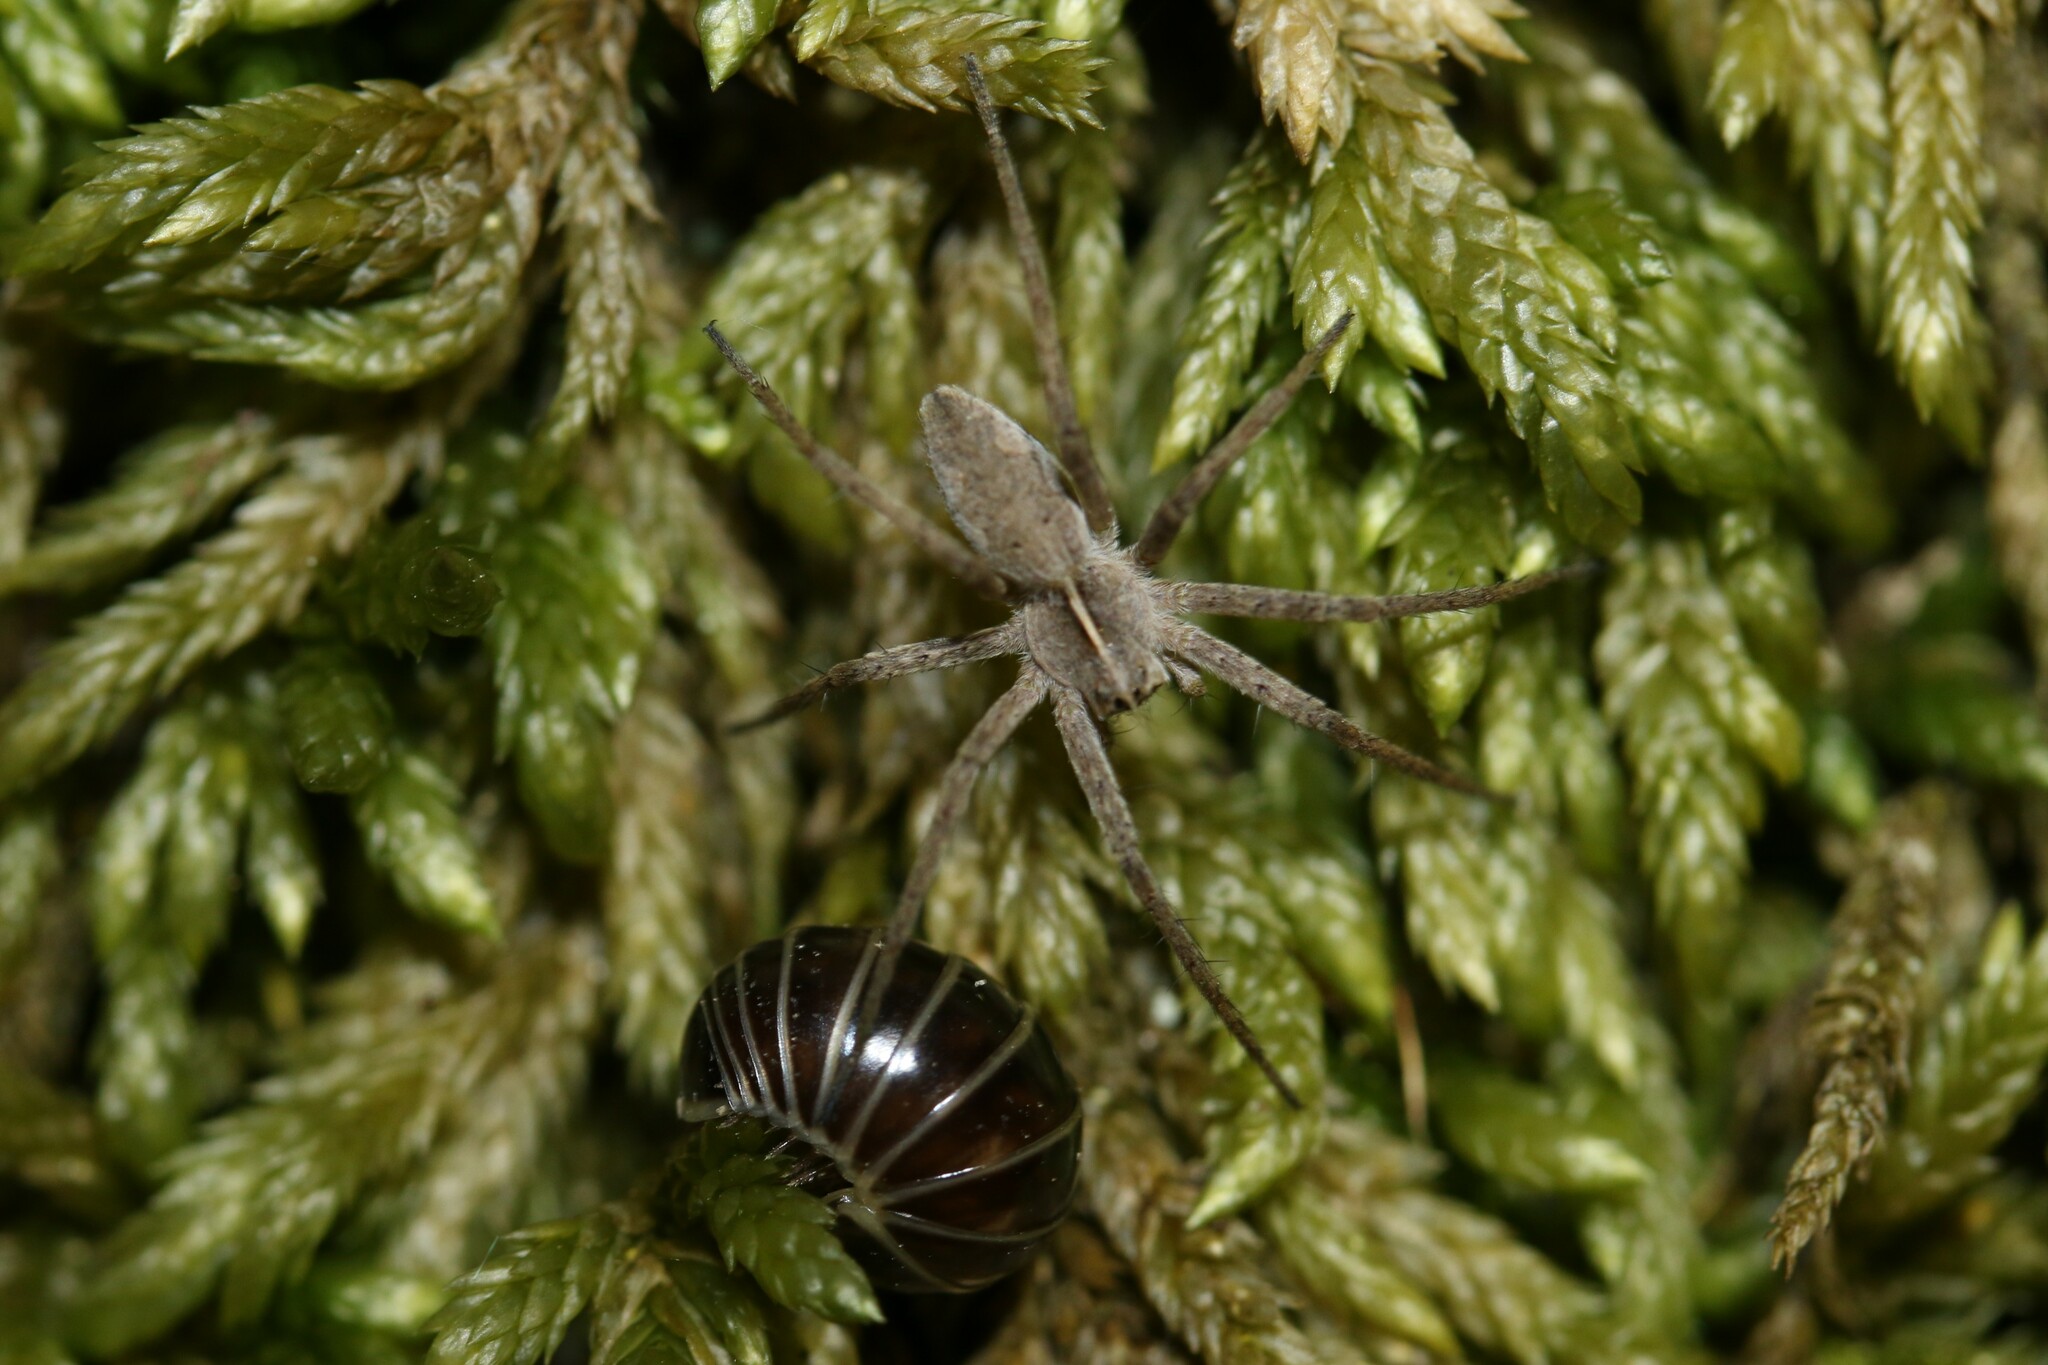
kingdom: Animalia
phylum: Arthropoda
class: Arachnida
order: Araneae
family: Pisauridae
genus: Pisaura
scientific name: Pisaura mirabilis
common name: Tent spider
